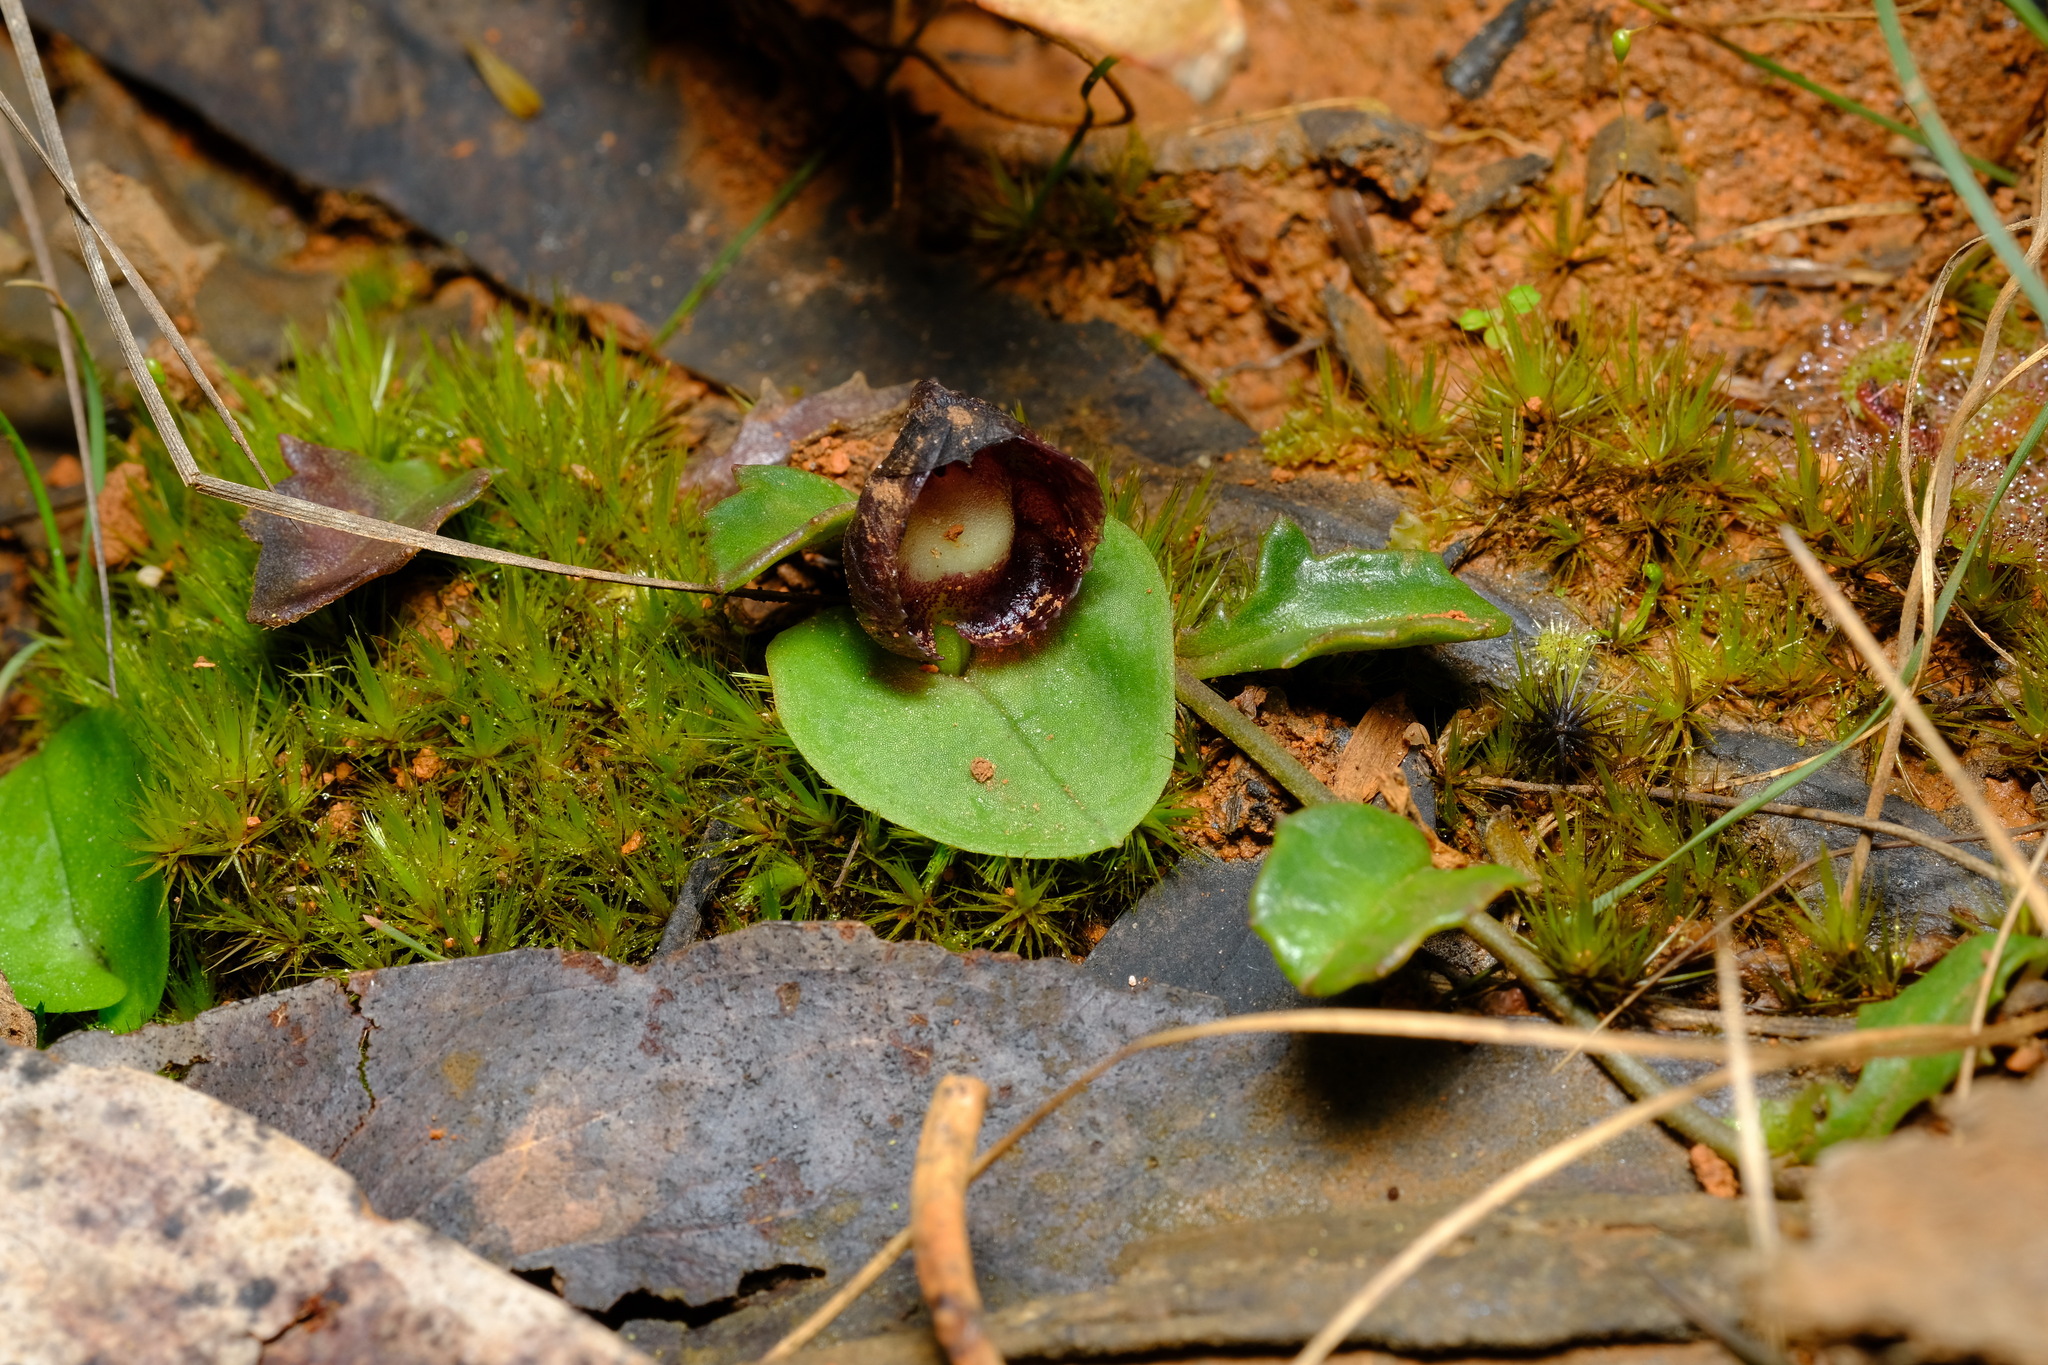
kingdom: Plantae
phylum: Tracheophyta
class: Liliopsida
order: Asparagales
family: Orchidaceae
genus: Corybas
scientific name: Corybas incurvus
